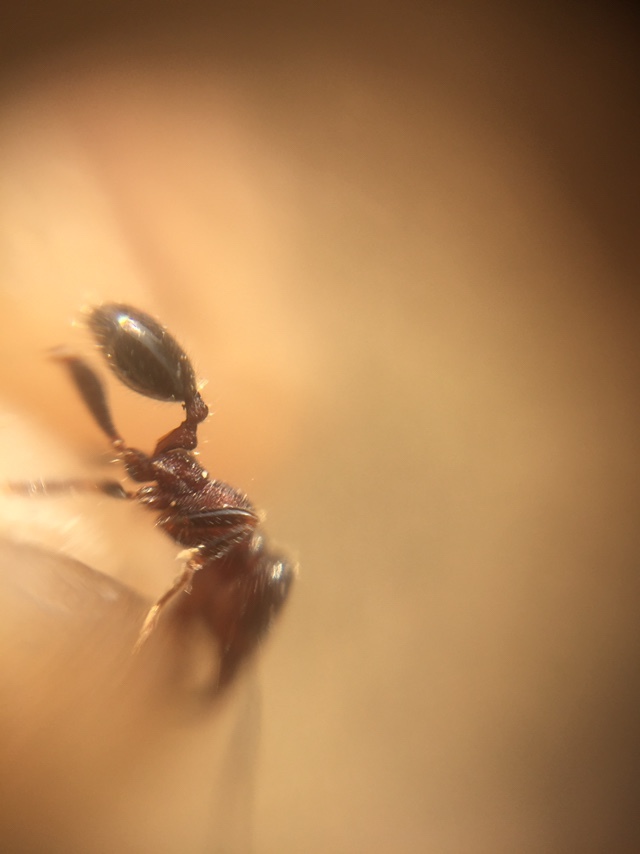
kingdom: Animalia
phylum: Arthropoda
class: Insecta
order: Hymenoptera
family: Formicidae
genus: Trichomyrmex
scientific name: Trichomyrmex
